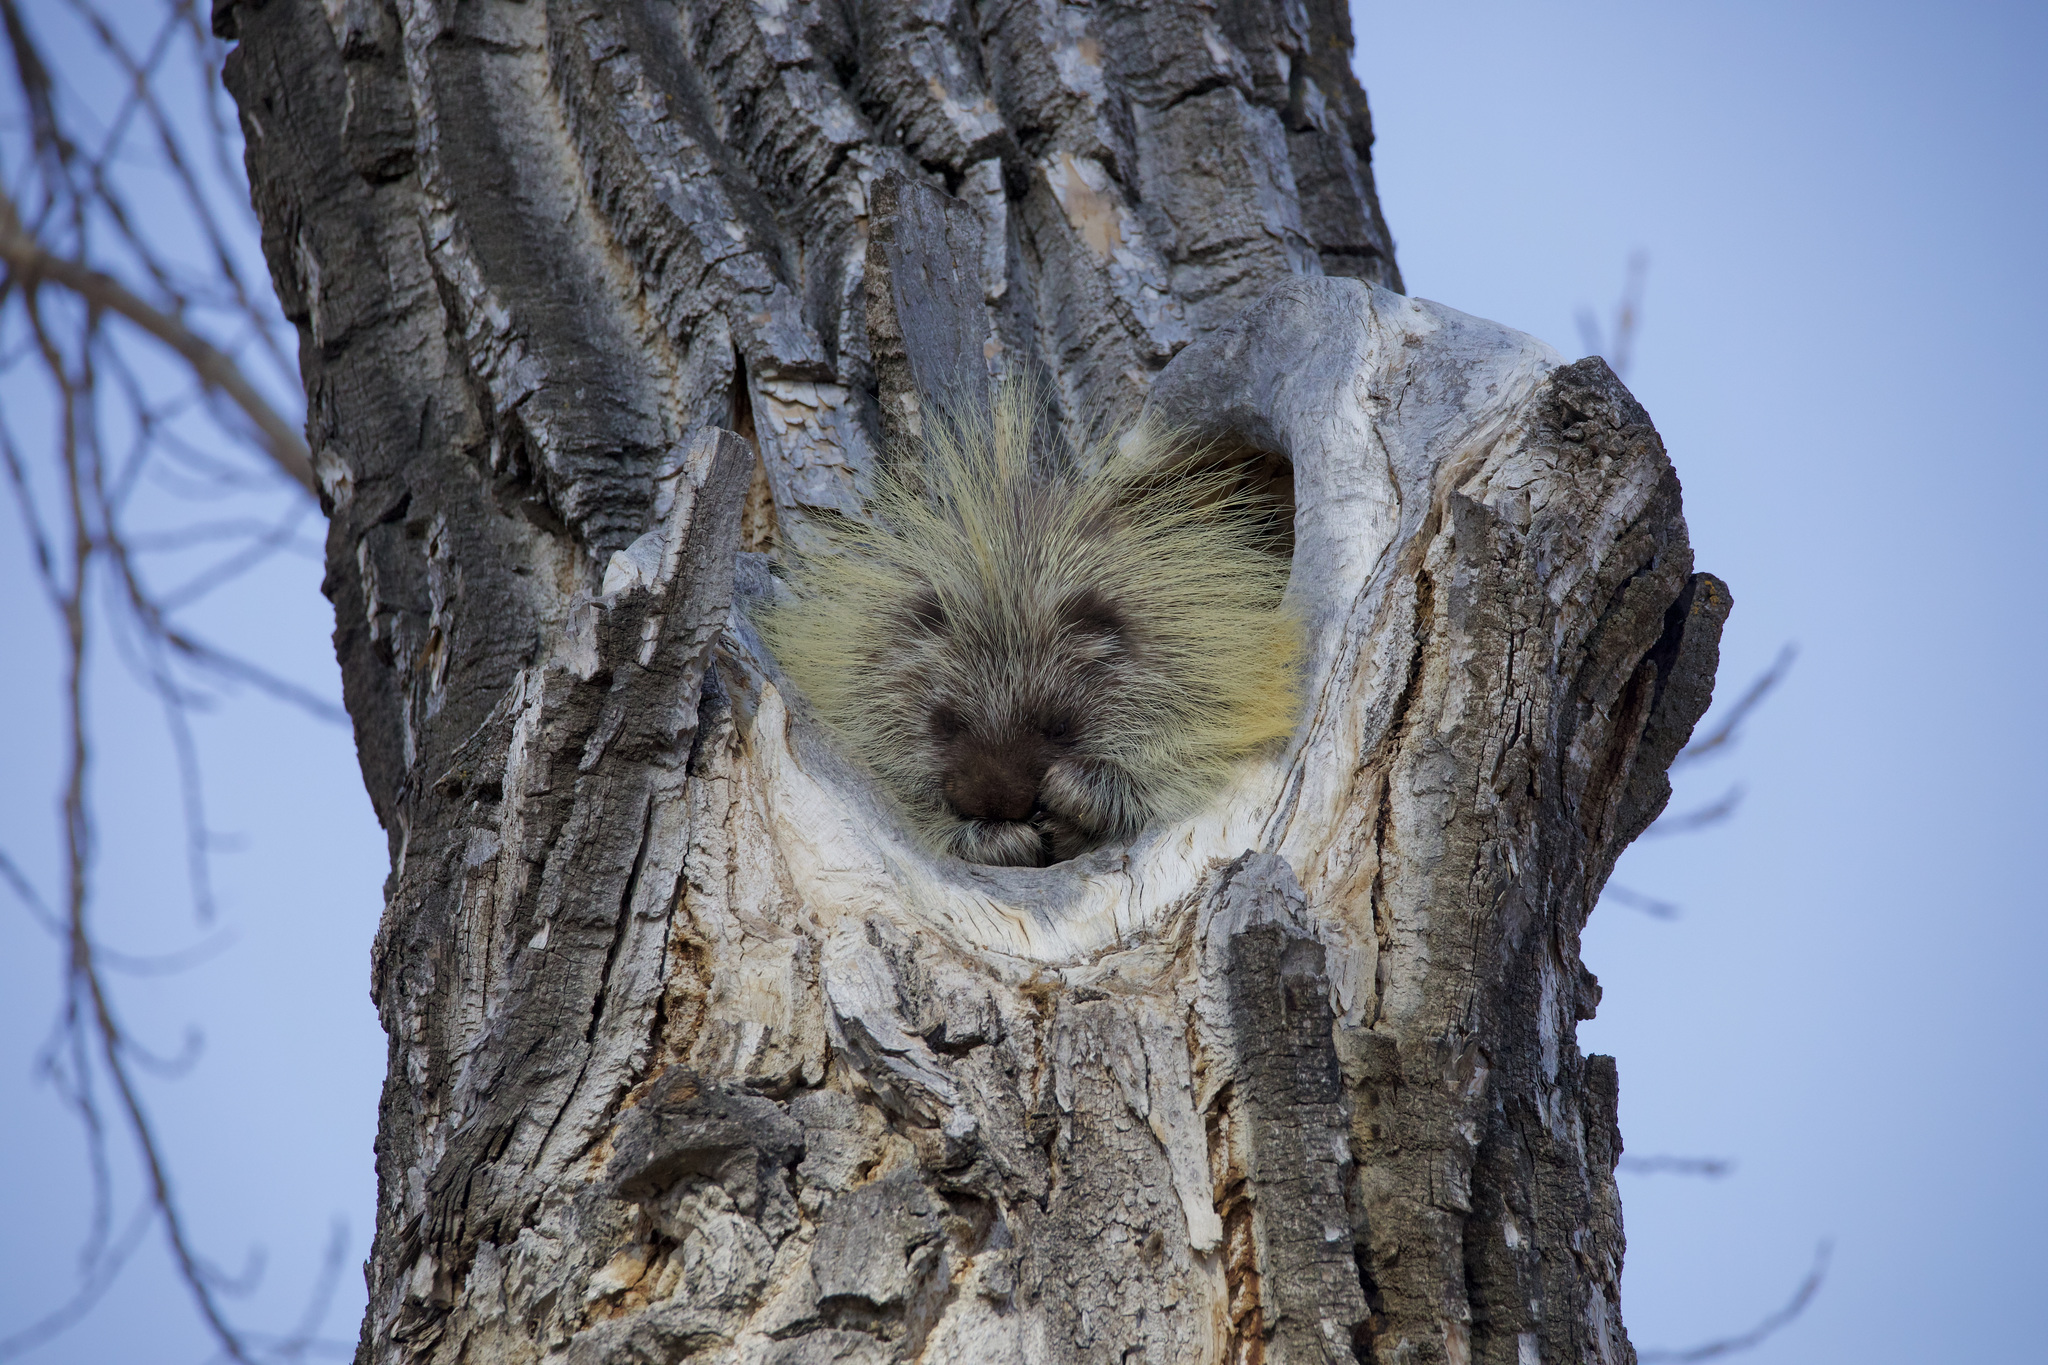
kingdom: Animalia
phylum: Chordata
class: Mammalia
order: Rodentia
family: Erethizontidae
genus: Erethizon
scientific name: Erethizon dorsatus
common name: North american porcupine
